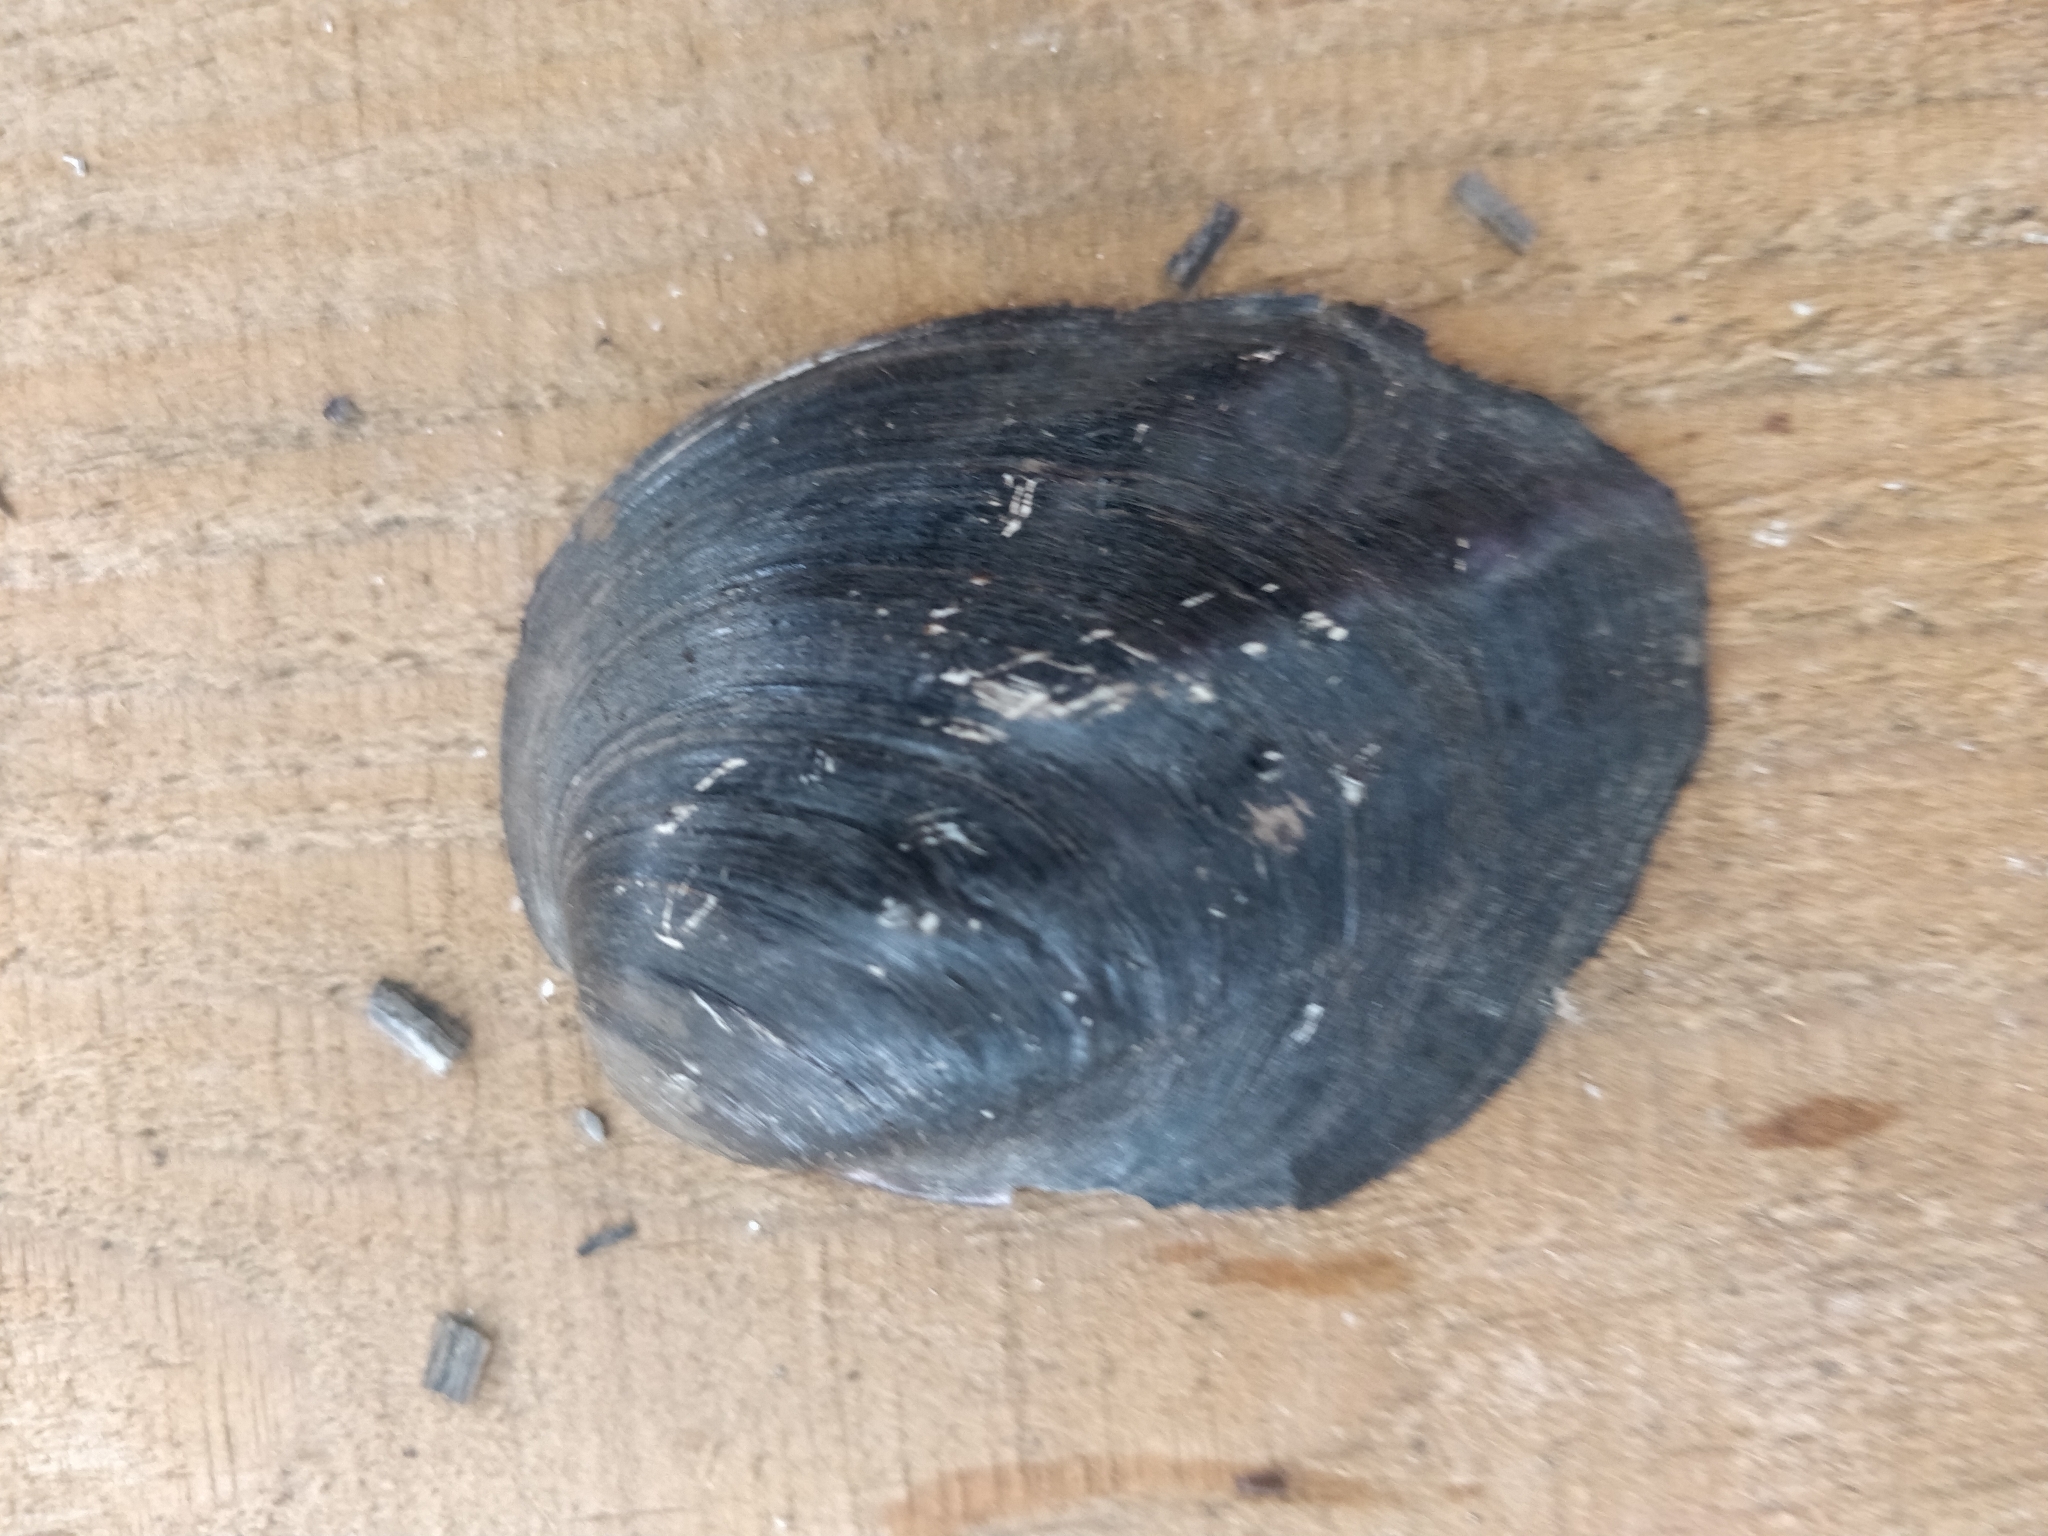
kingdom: Animalia
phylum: Mollusca
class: Bivalvia
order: Unionida
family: Unionidae
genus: Amblema
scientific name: Amblema plicata
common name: Threeridge
